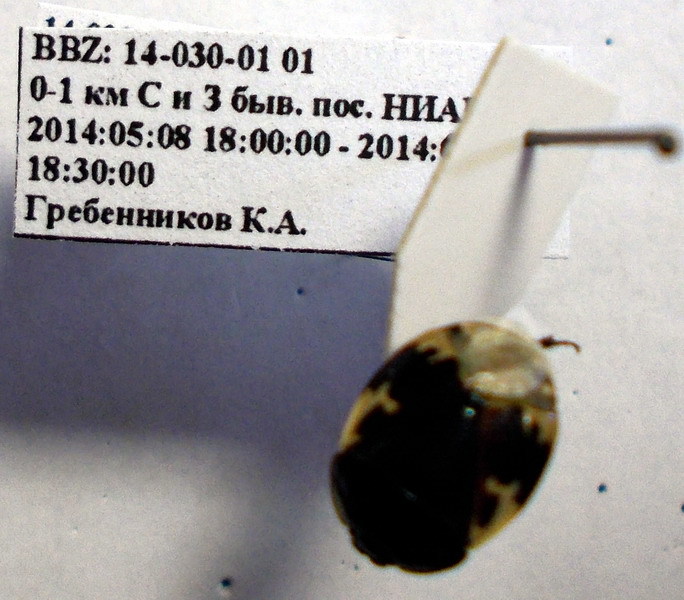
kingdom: Animalia
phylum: Arthropoda
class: Insecta
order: Hemiptera
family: Cydnidae
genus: Tritomegas
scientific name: Tritomegas bicolor
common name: Pied shieldbug
